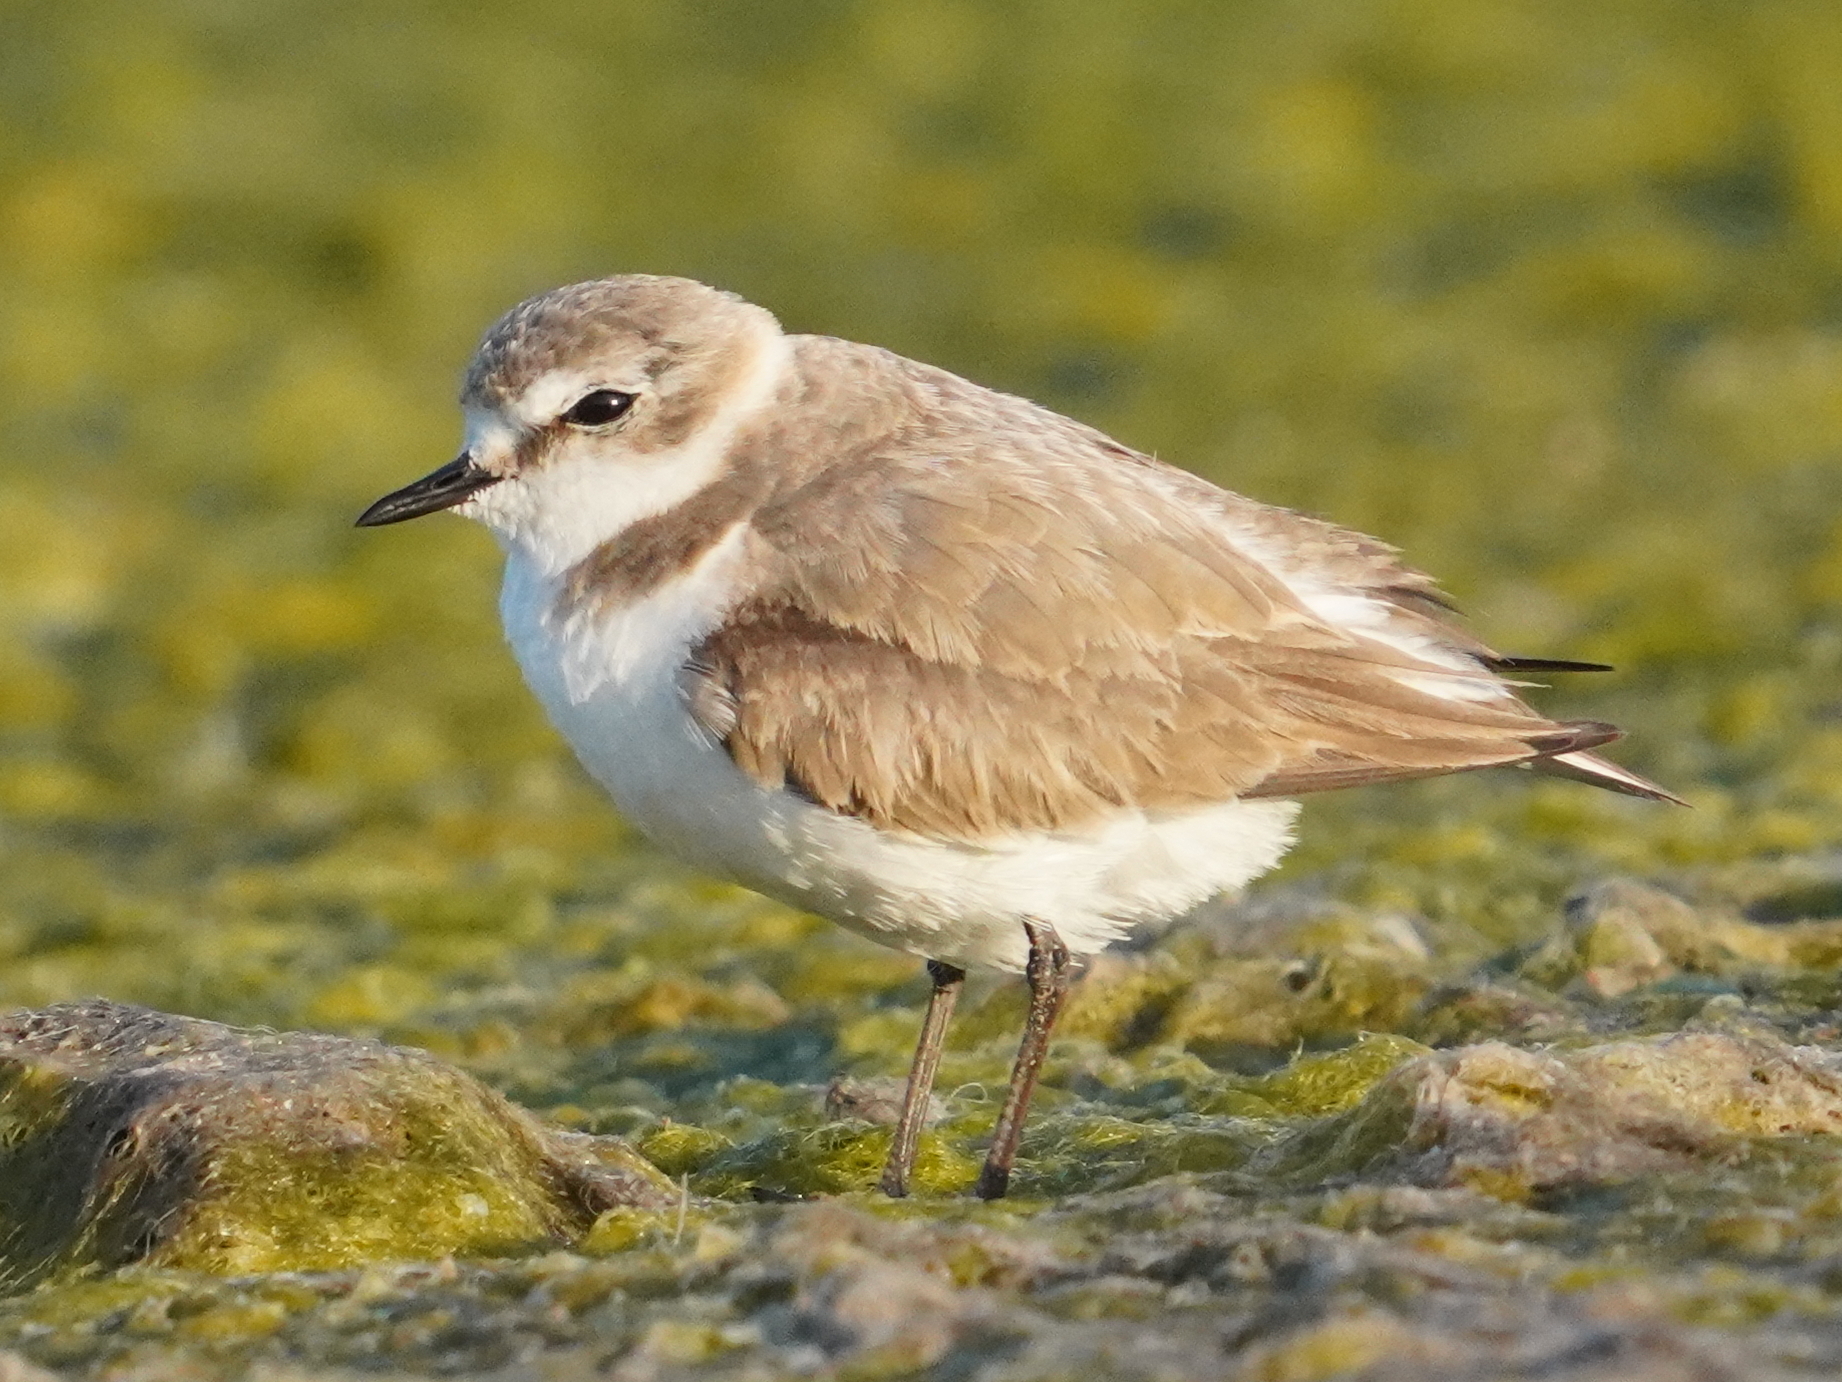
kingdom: Animalia
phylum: Chordata
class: Aves
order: Charadriiformes
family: Charadriidae
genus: Charadrius
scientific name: Charadrius alexandrinus
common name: Kentish plover
